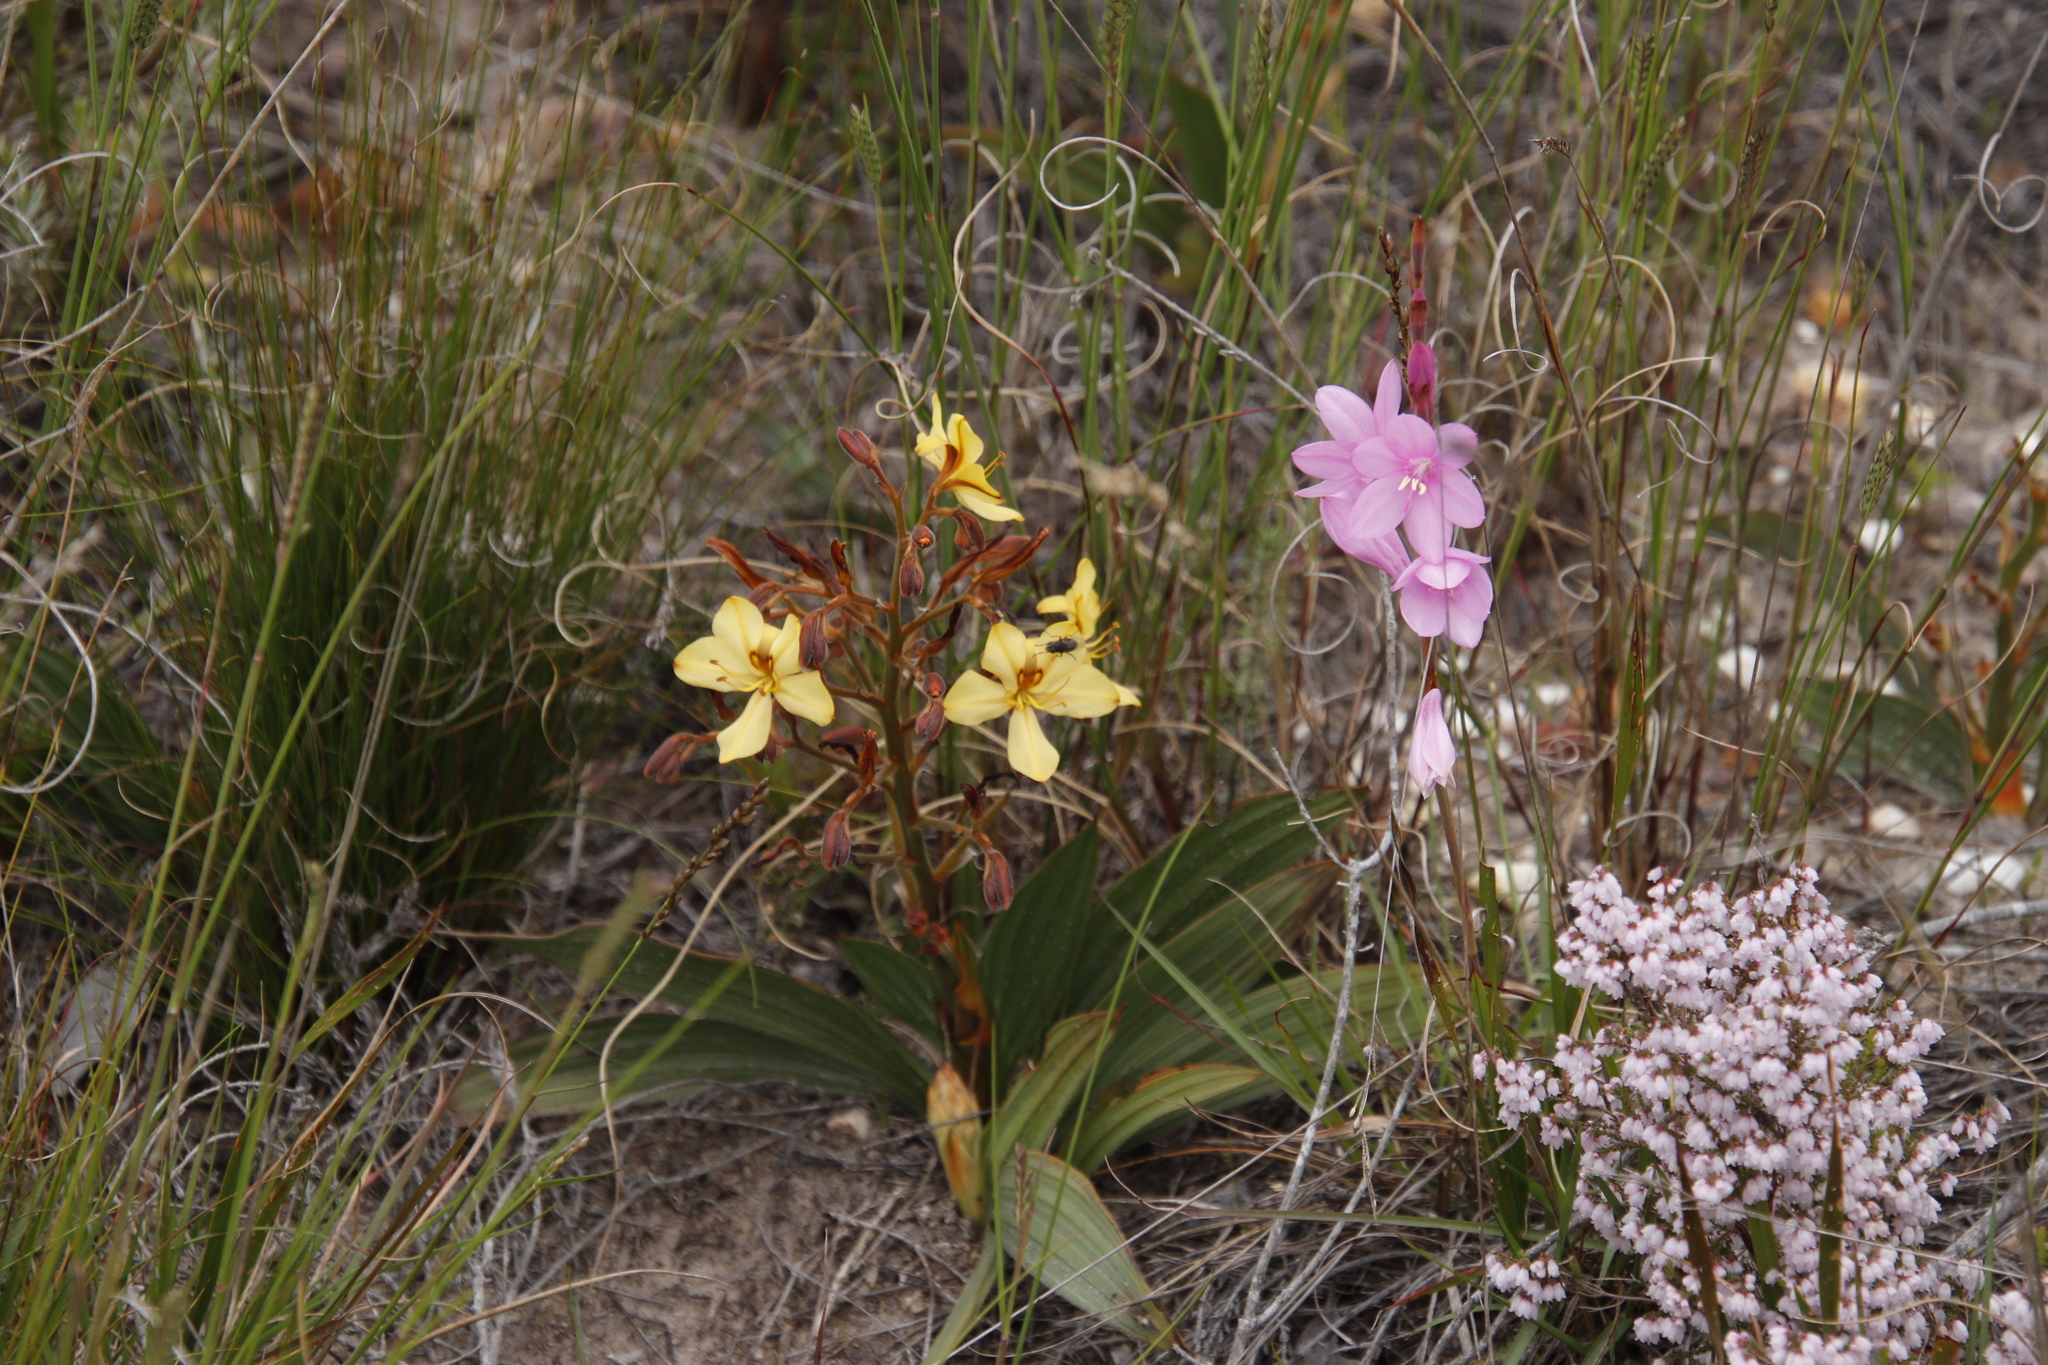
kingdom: Plantae
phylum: Tracheophyta
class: Liliopsida
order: Commelinales
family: Haemodoraceae
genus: Wachendorfia
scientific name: Wachendorfia paniculata
